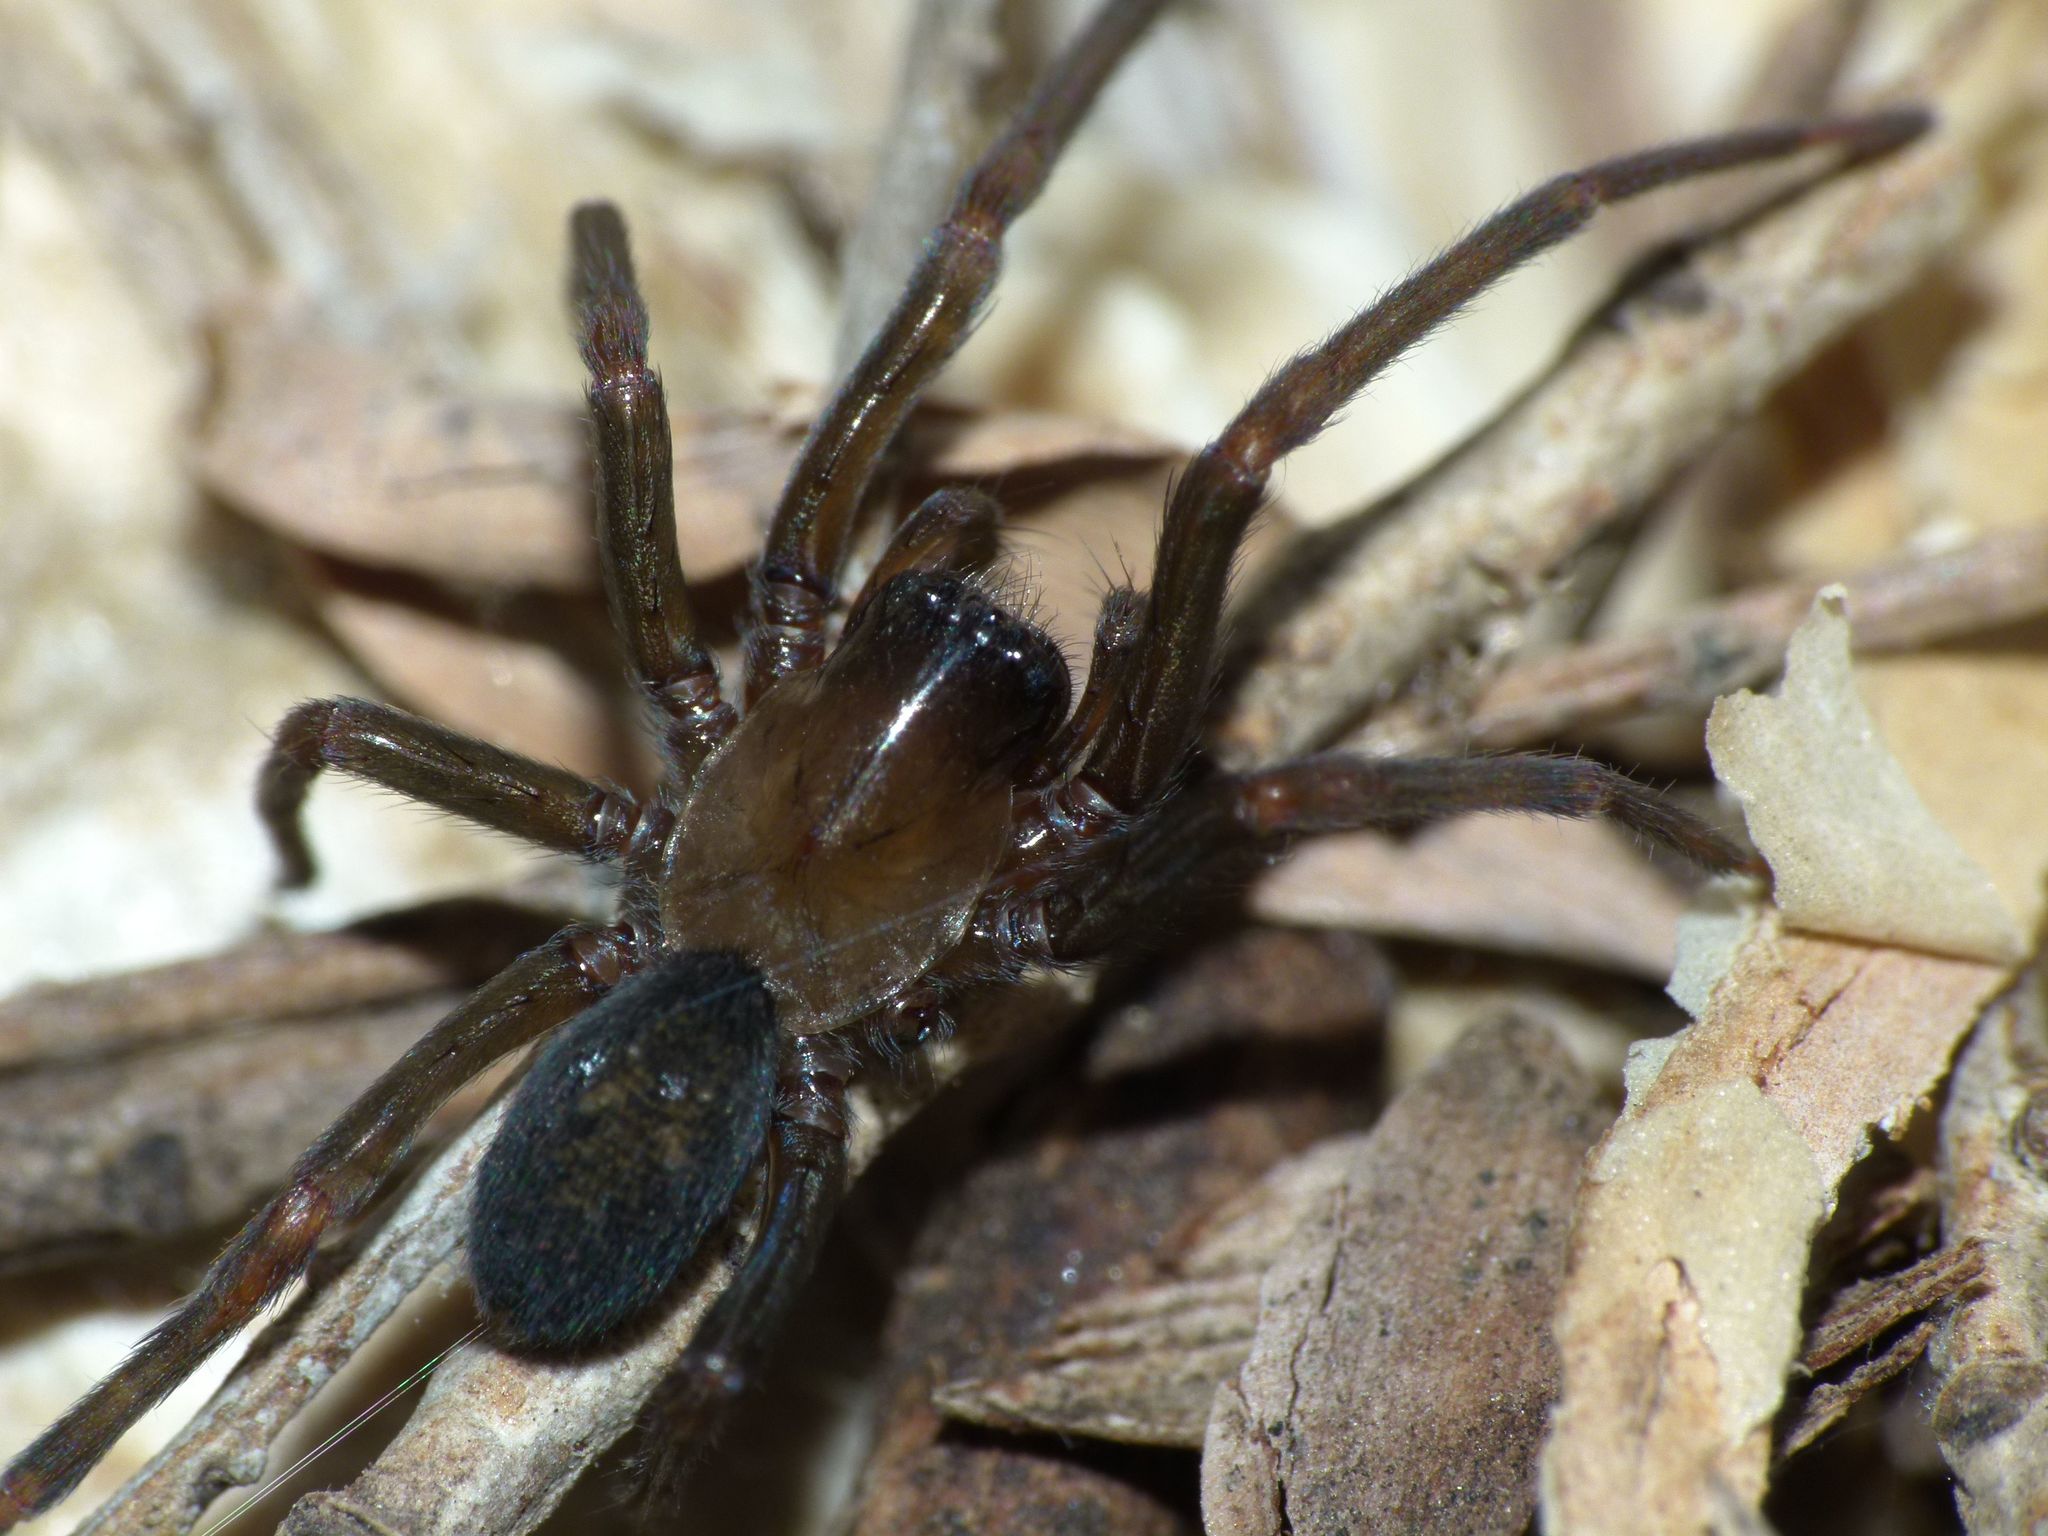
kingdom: Animalia
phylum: Arthropoda
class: Arachnida
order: Araneae
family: Desidae
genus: Metaltella
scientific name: Metaltella simoni
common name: Cribellate spider
